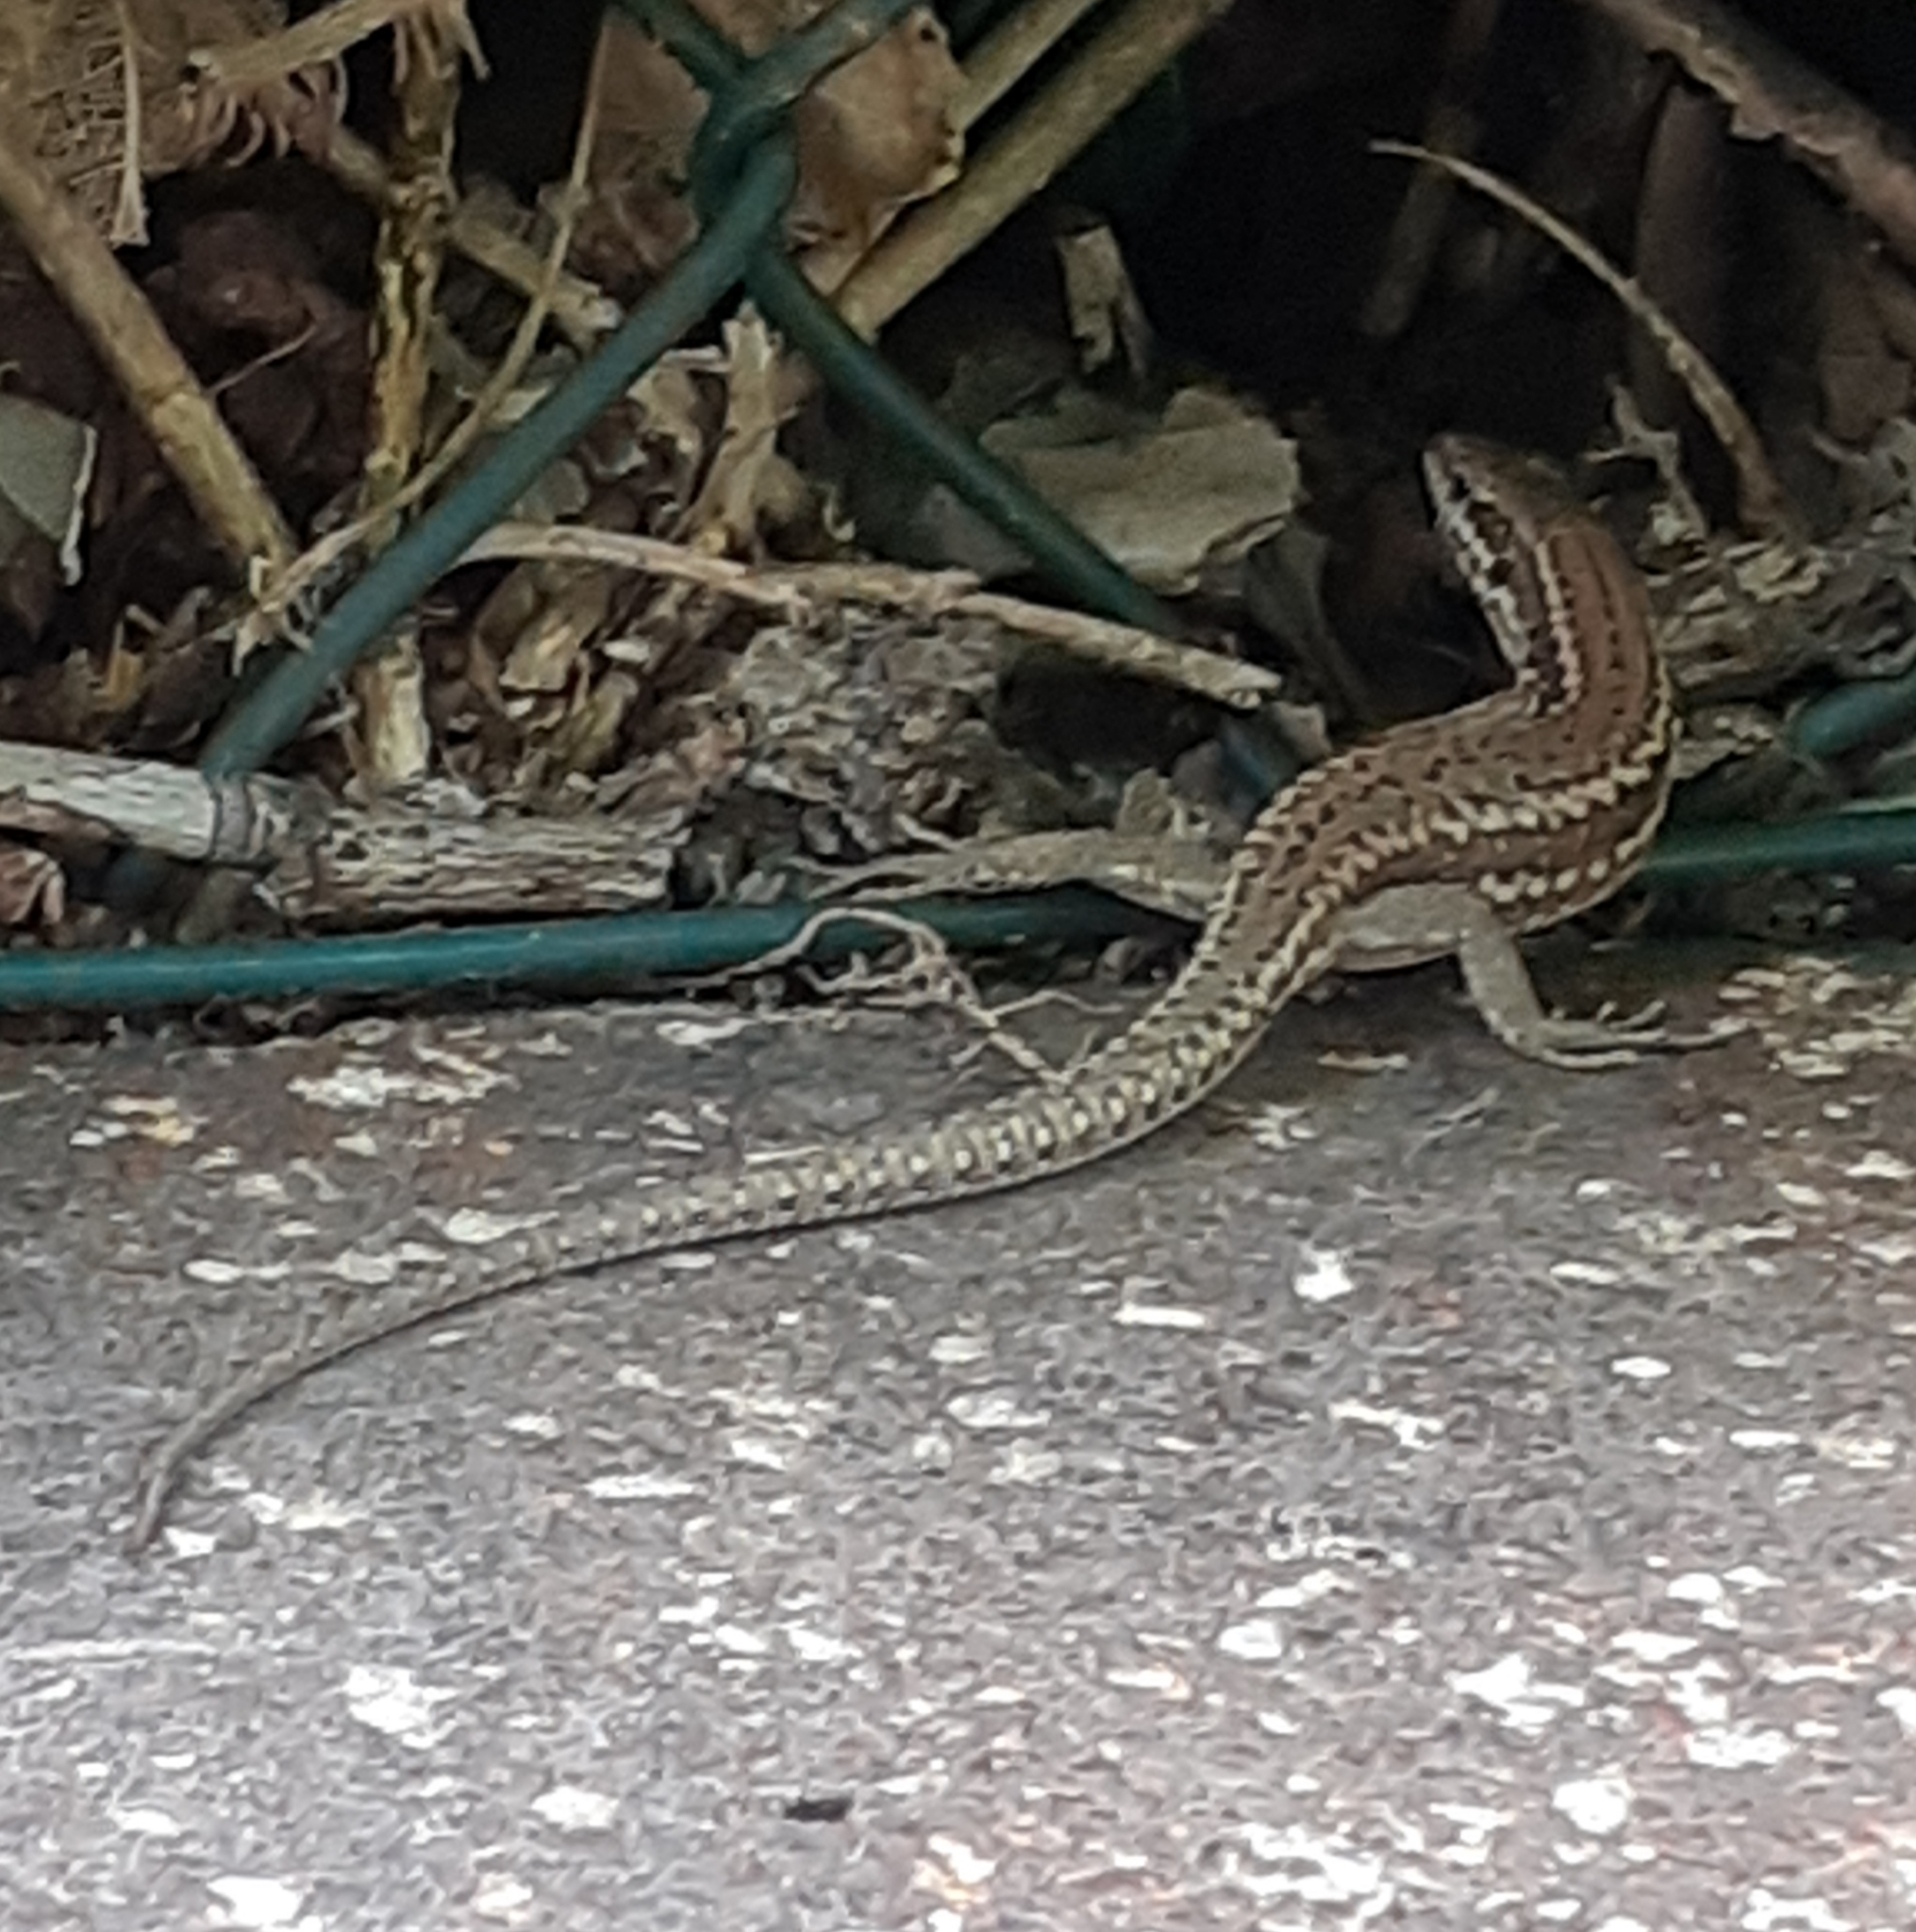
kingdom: Animalia
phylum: Chordata
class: Squamata
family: Lacertidae
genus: Podarcis
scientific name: Podarcis muralis
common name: Common wall lizard
